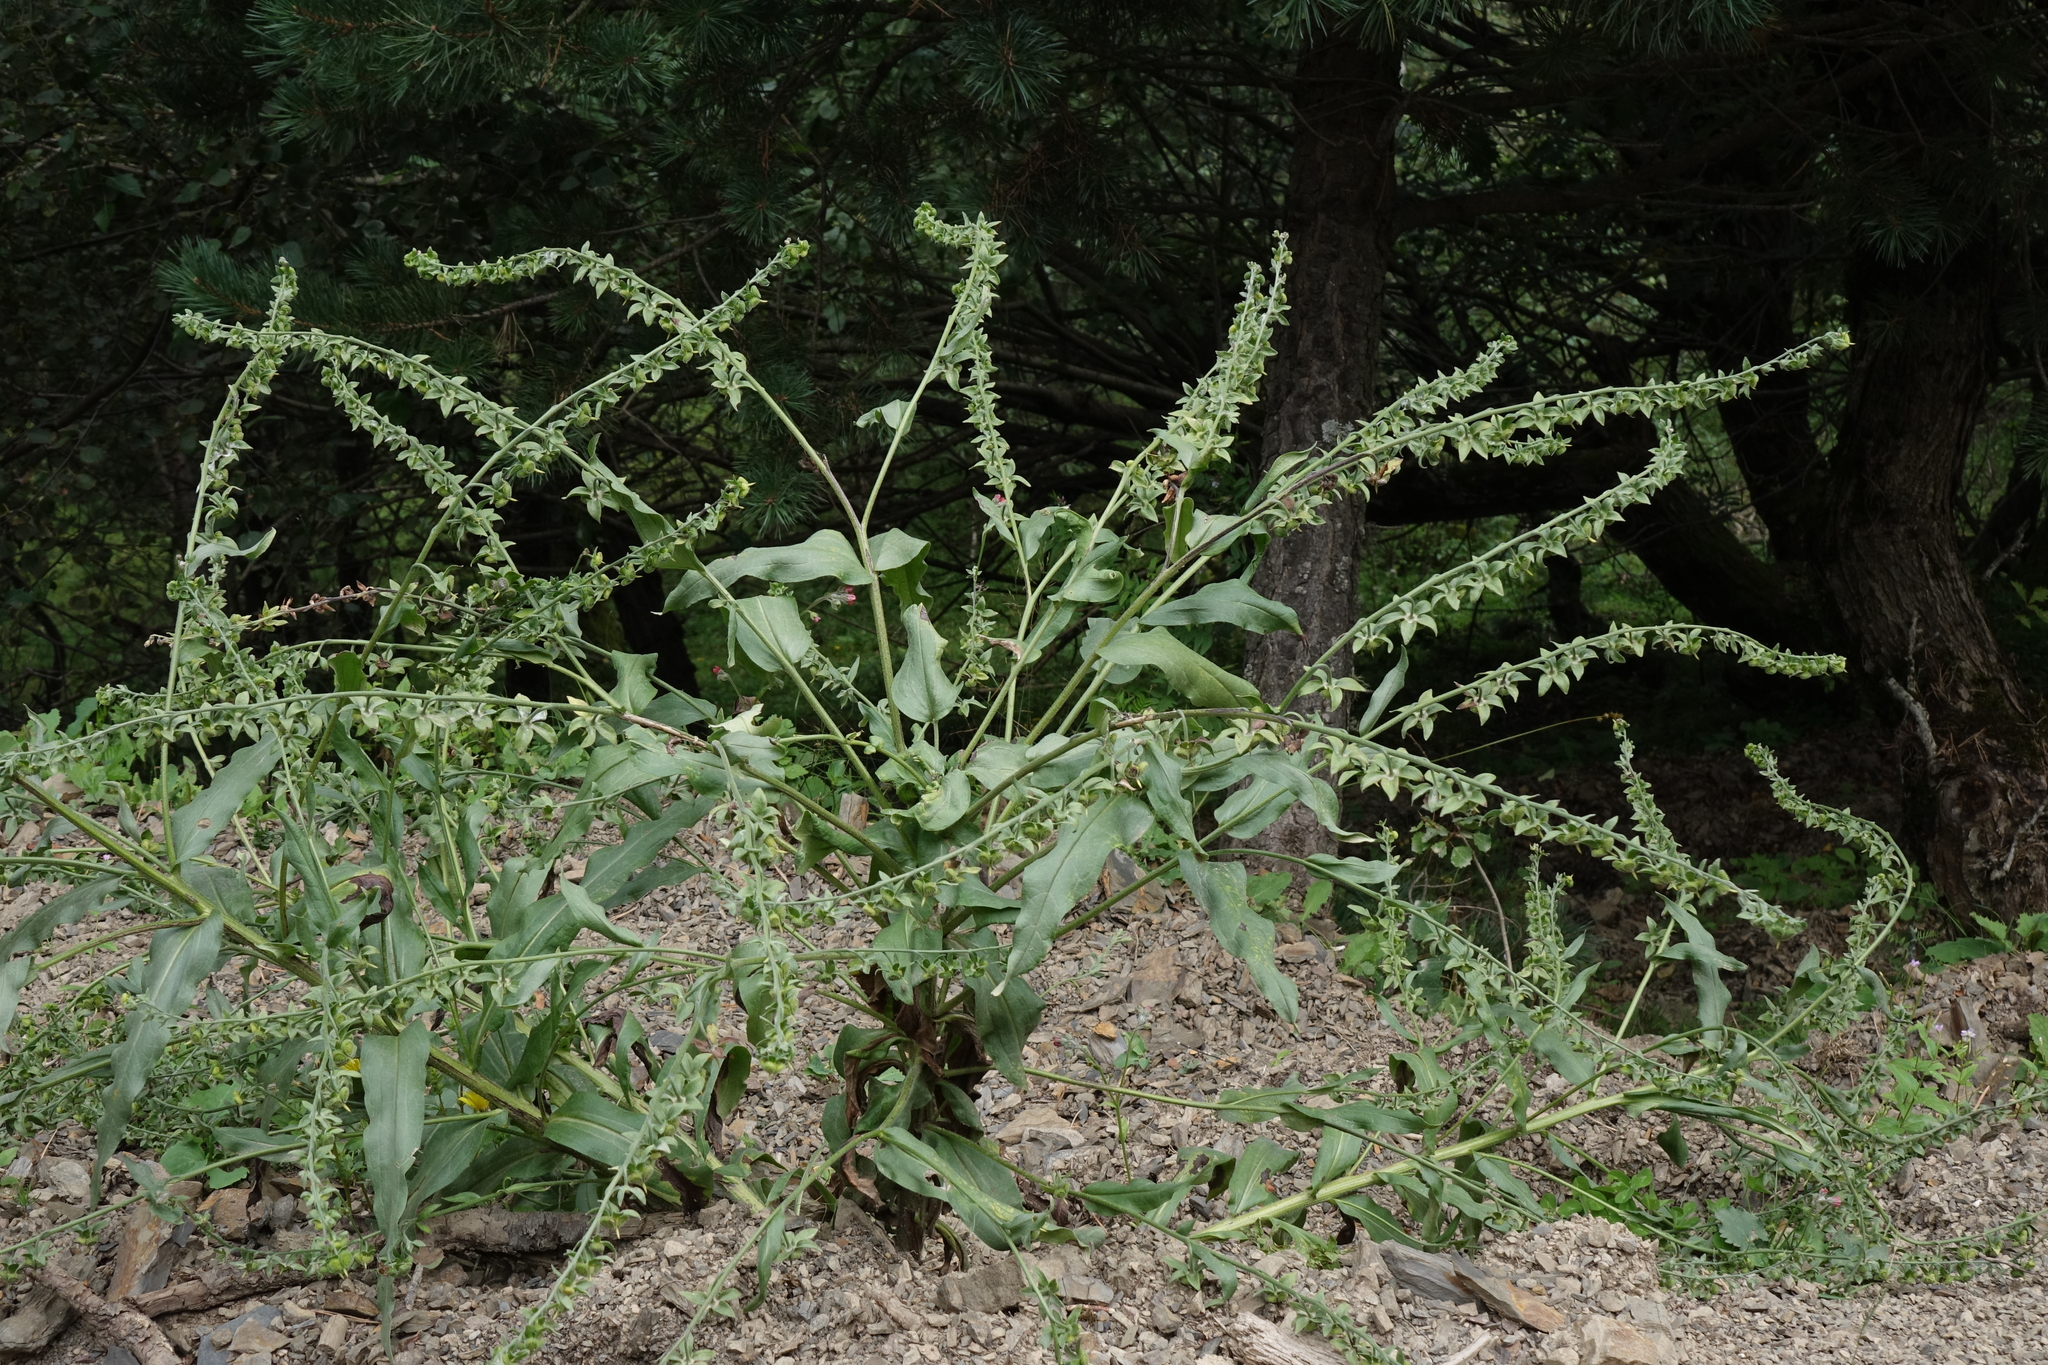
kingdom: Plantae
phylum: Tracheophyta
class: Magnoliopsida
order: Boraginales
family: Boraginaceae
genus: Cynoglossum
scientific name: Cynoglossum creticum
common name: Blue hound's tongue
